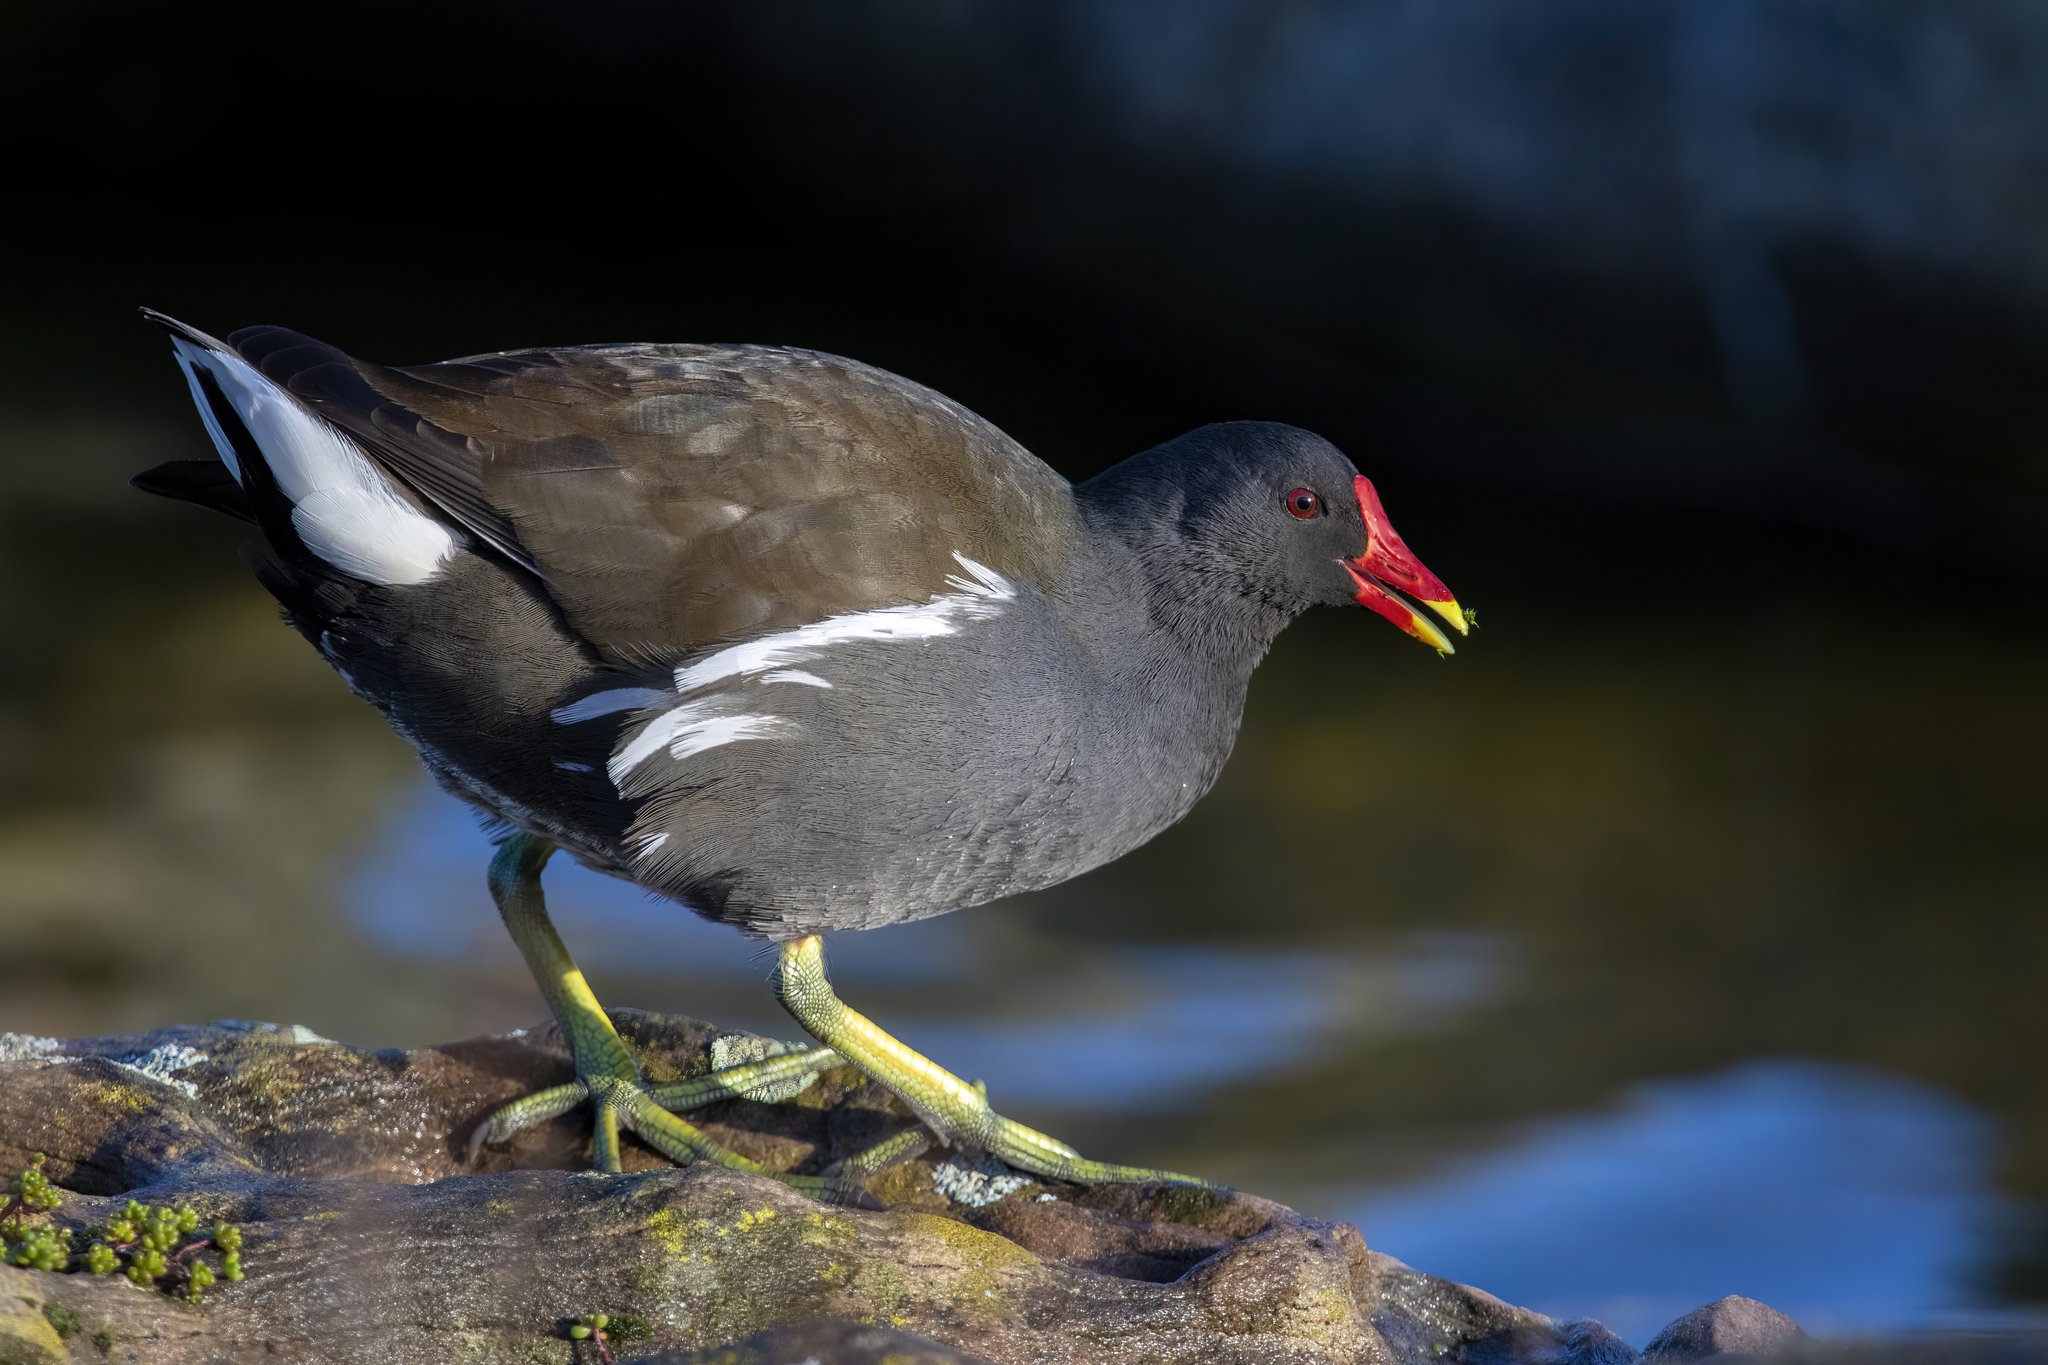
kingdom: Animalia
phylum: Chordata
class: Aves
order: Gruiformes
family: Rallidae
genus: Gallinula
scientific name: Gallinula chloropus
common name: Common moorhen
